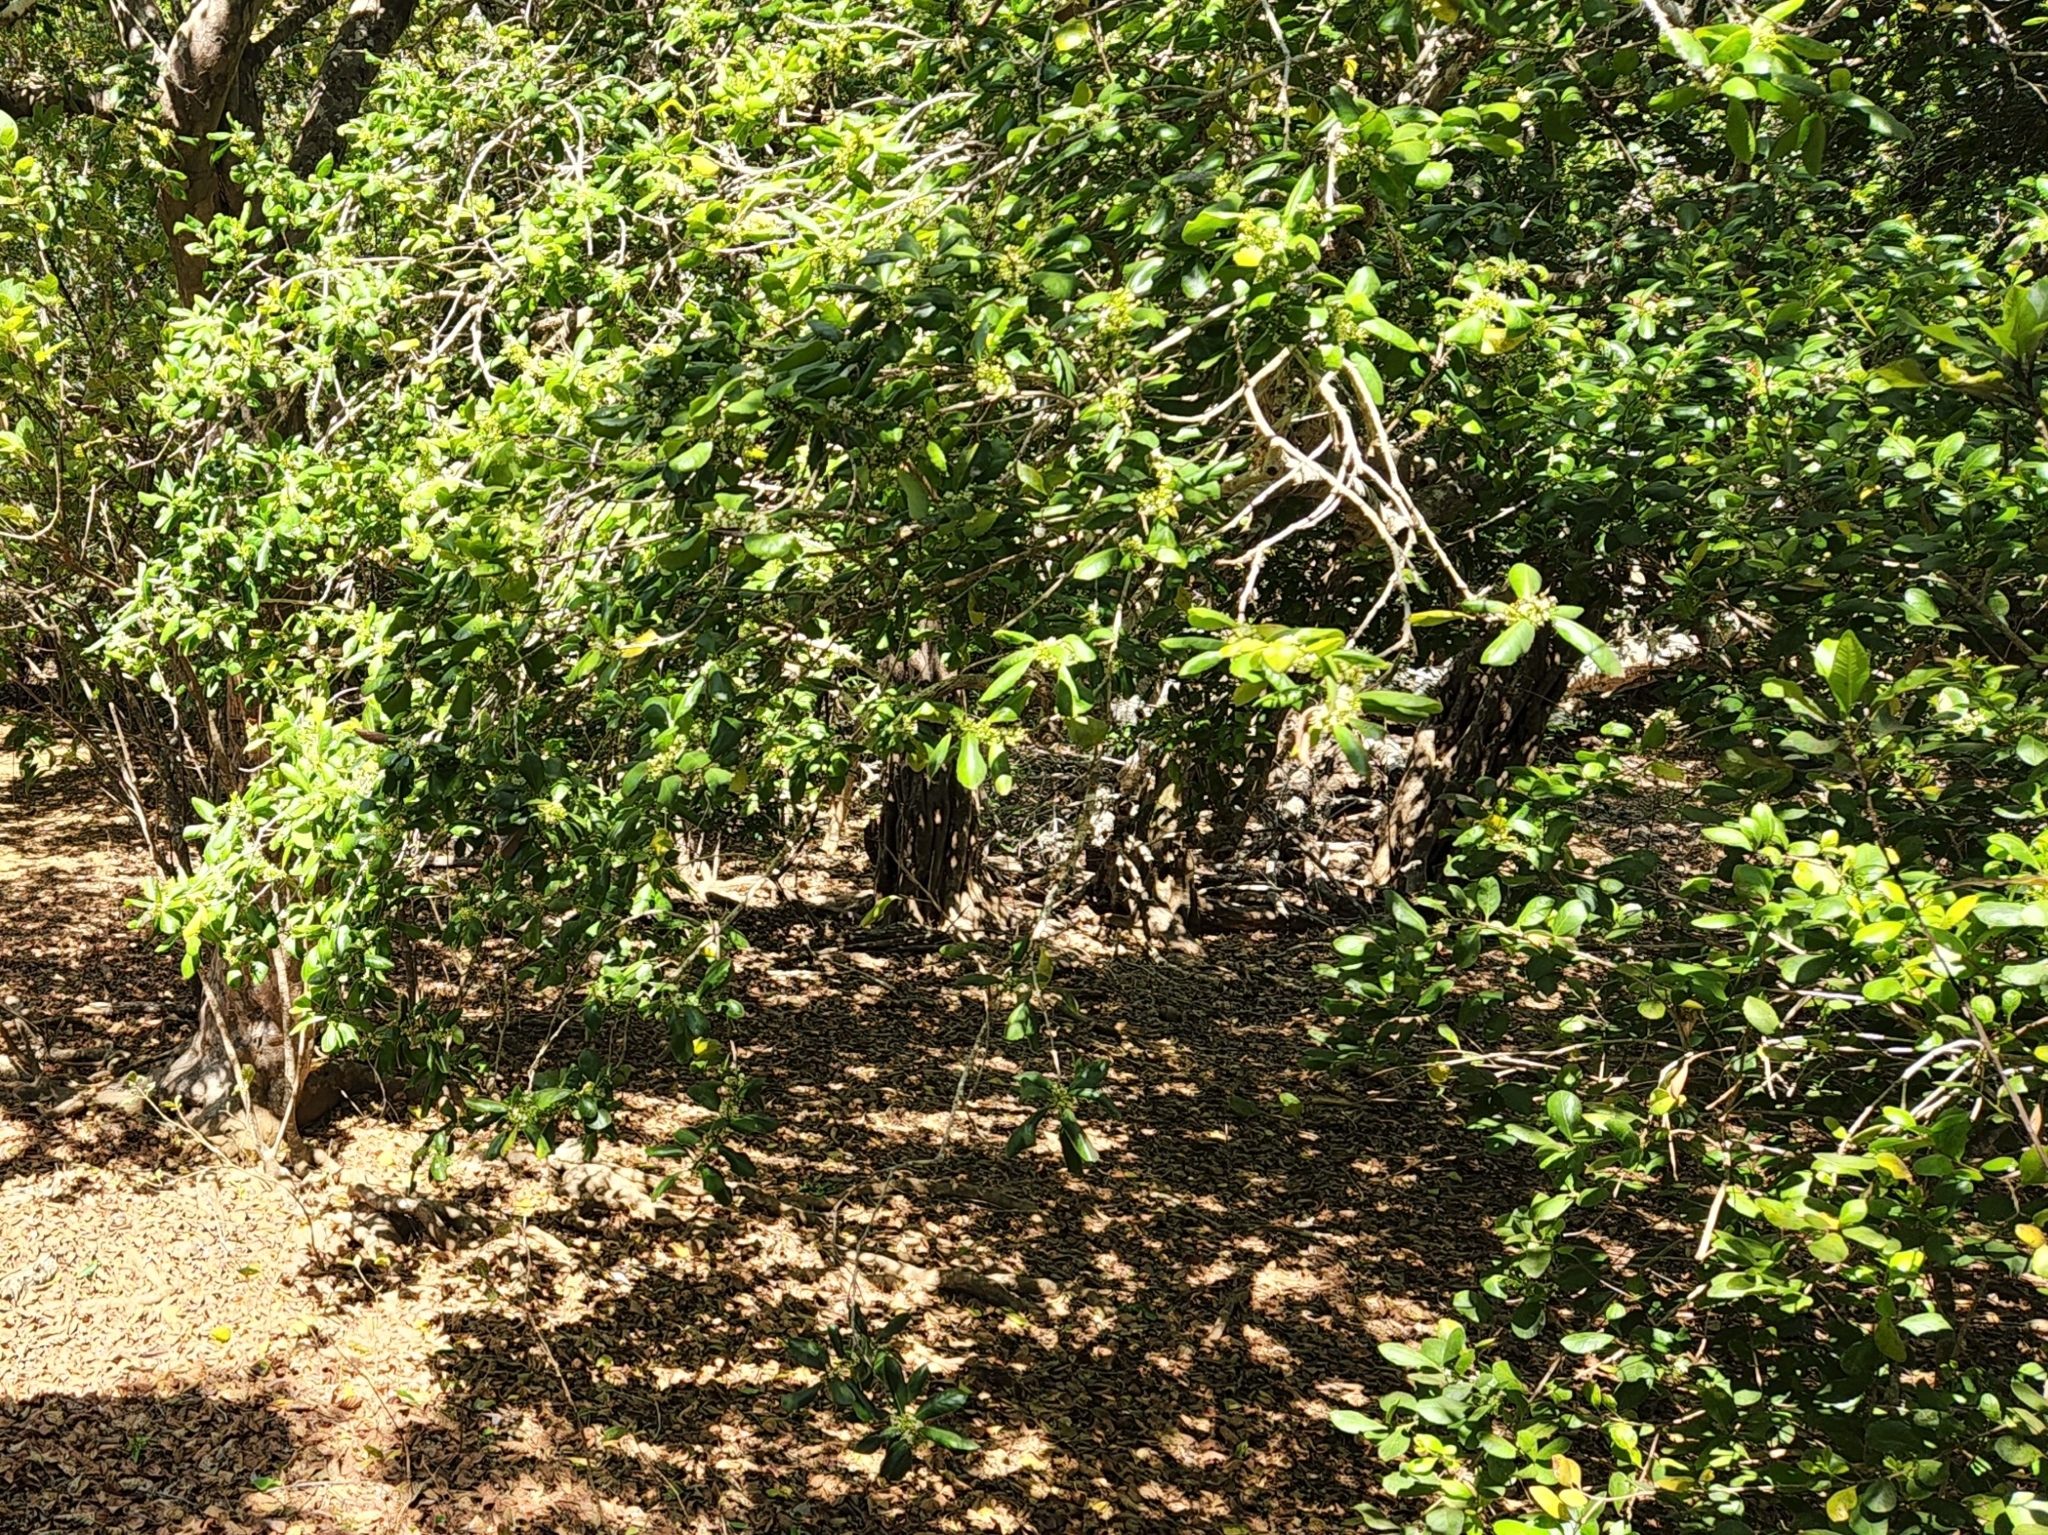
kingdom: Plantae
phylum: Tracheophyta
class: Magnoliopsida
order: Aquifoliales
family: Aquifoliaceae
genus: Ilex
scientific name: Ilex socorroensis
